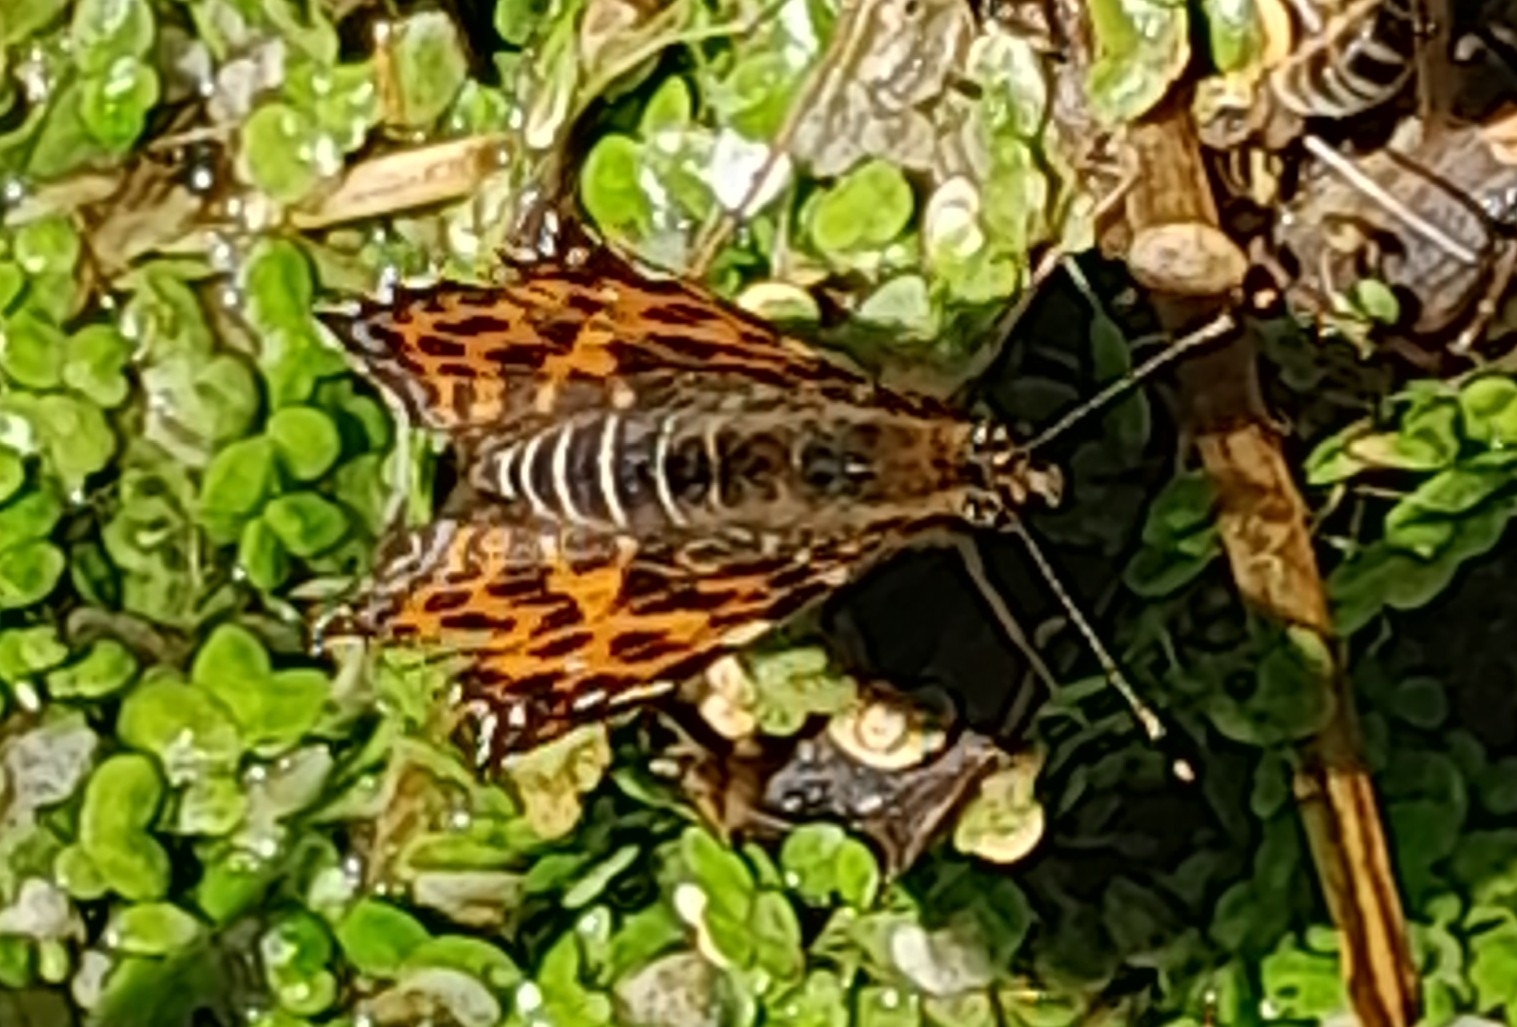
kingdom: Animalia
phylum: Arthropoda
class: Insecta
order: Lepidoptera
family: Nymphalidae
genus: Araschnia
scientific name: Araschnia levana
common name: Map butterfly
